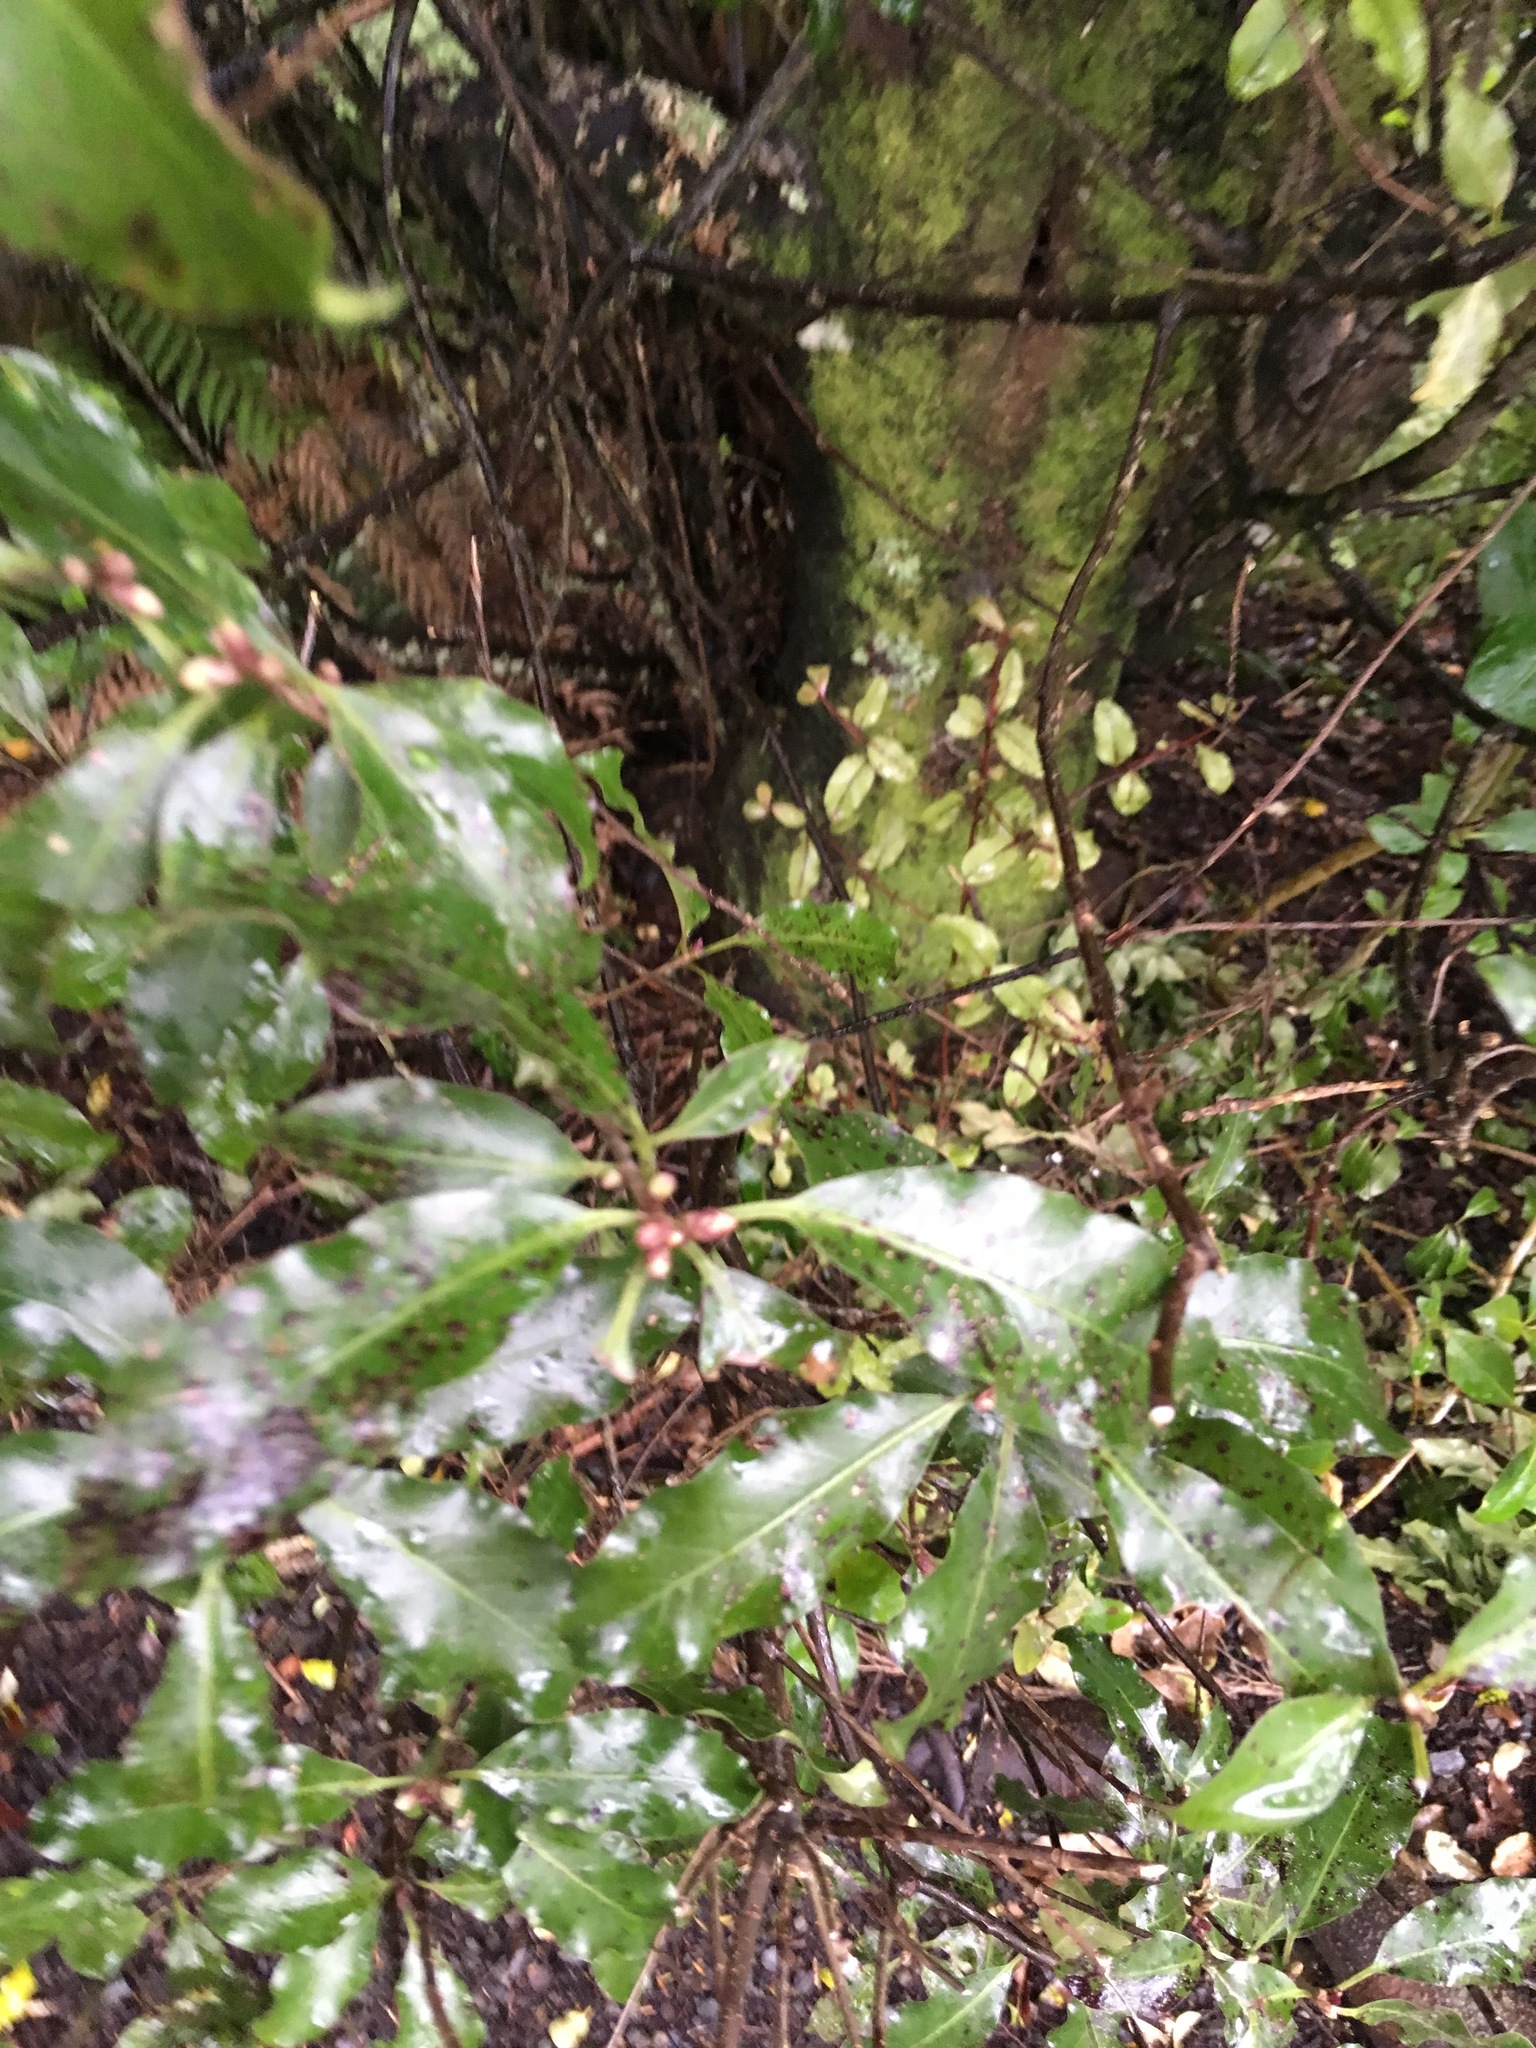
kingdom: Plantae
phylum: Tracheophyta
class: Magnoliopsida
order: Apiales
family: Pittosporaceae
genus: Pittosporum
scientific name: Pittosporum tenuifolium
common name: Kohuhu
